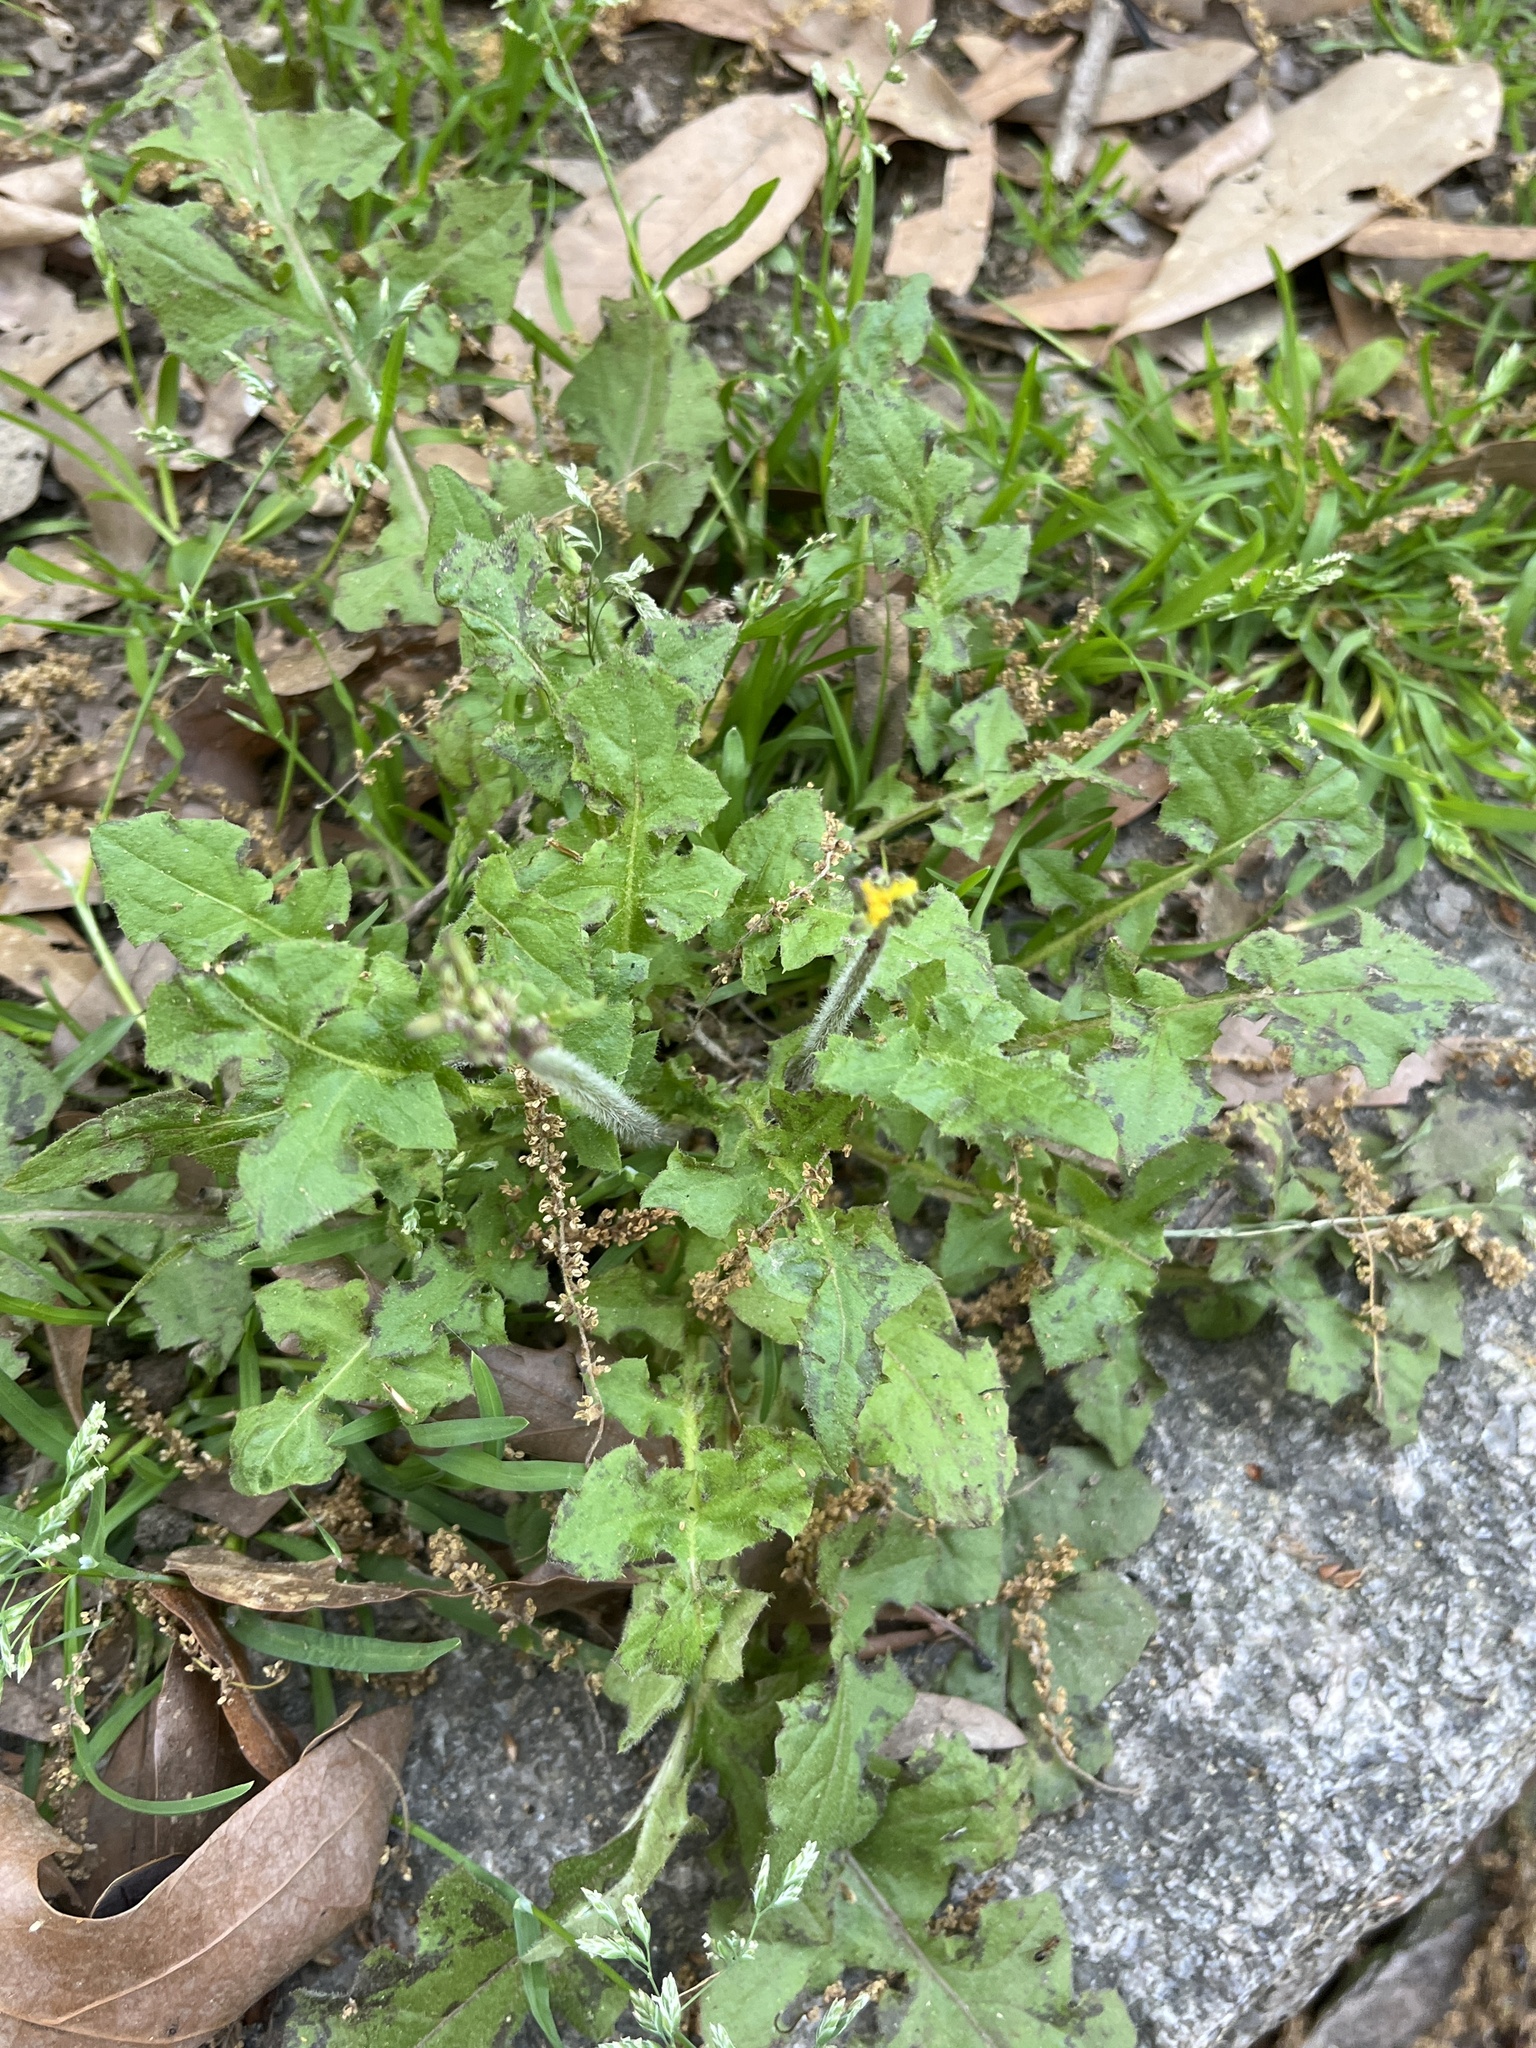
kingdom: Plantae
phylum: Tracheophyta
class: Magnoliopsida
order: Asterales
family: Asteraceae
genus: Youngia
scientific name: Youngia japonica
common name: Oriental false hawksbeard
